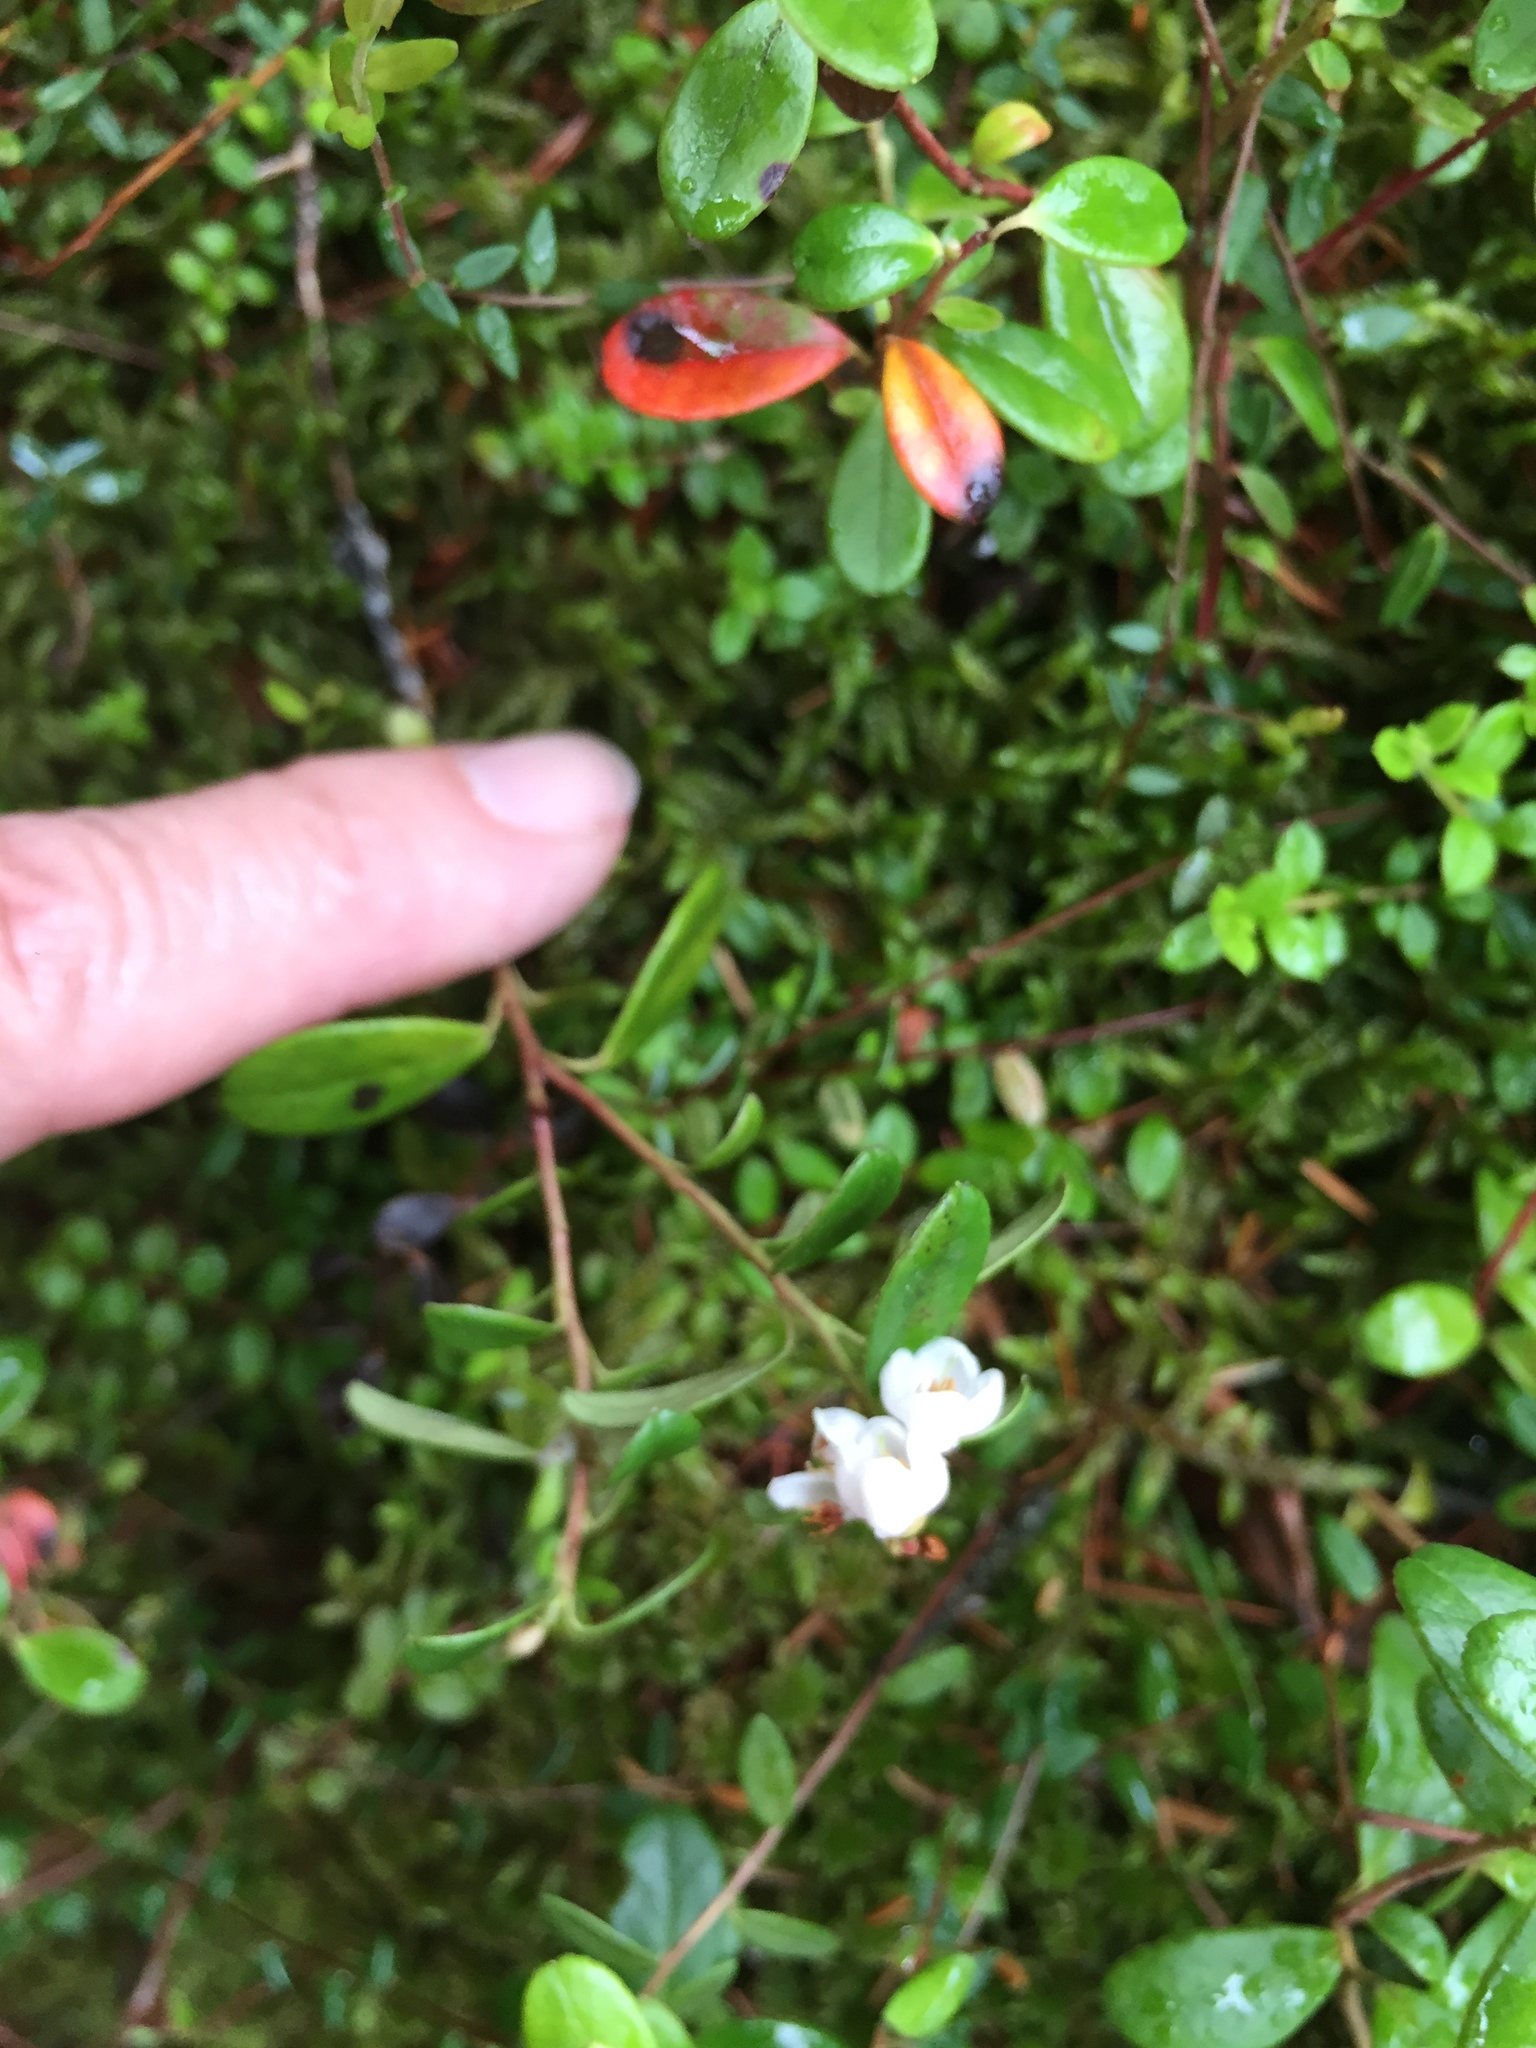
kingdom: Plantae
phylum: Tracheophyta
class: Magnoliopsida
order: Ericales
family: Ericaceae
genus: Vaccinium
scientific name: Vaccinium vitis-idaea
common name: Cowberry
